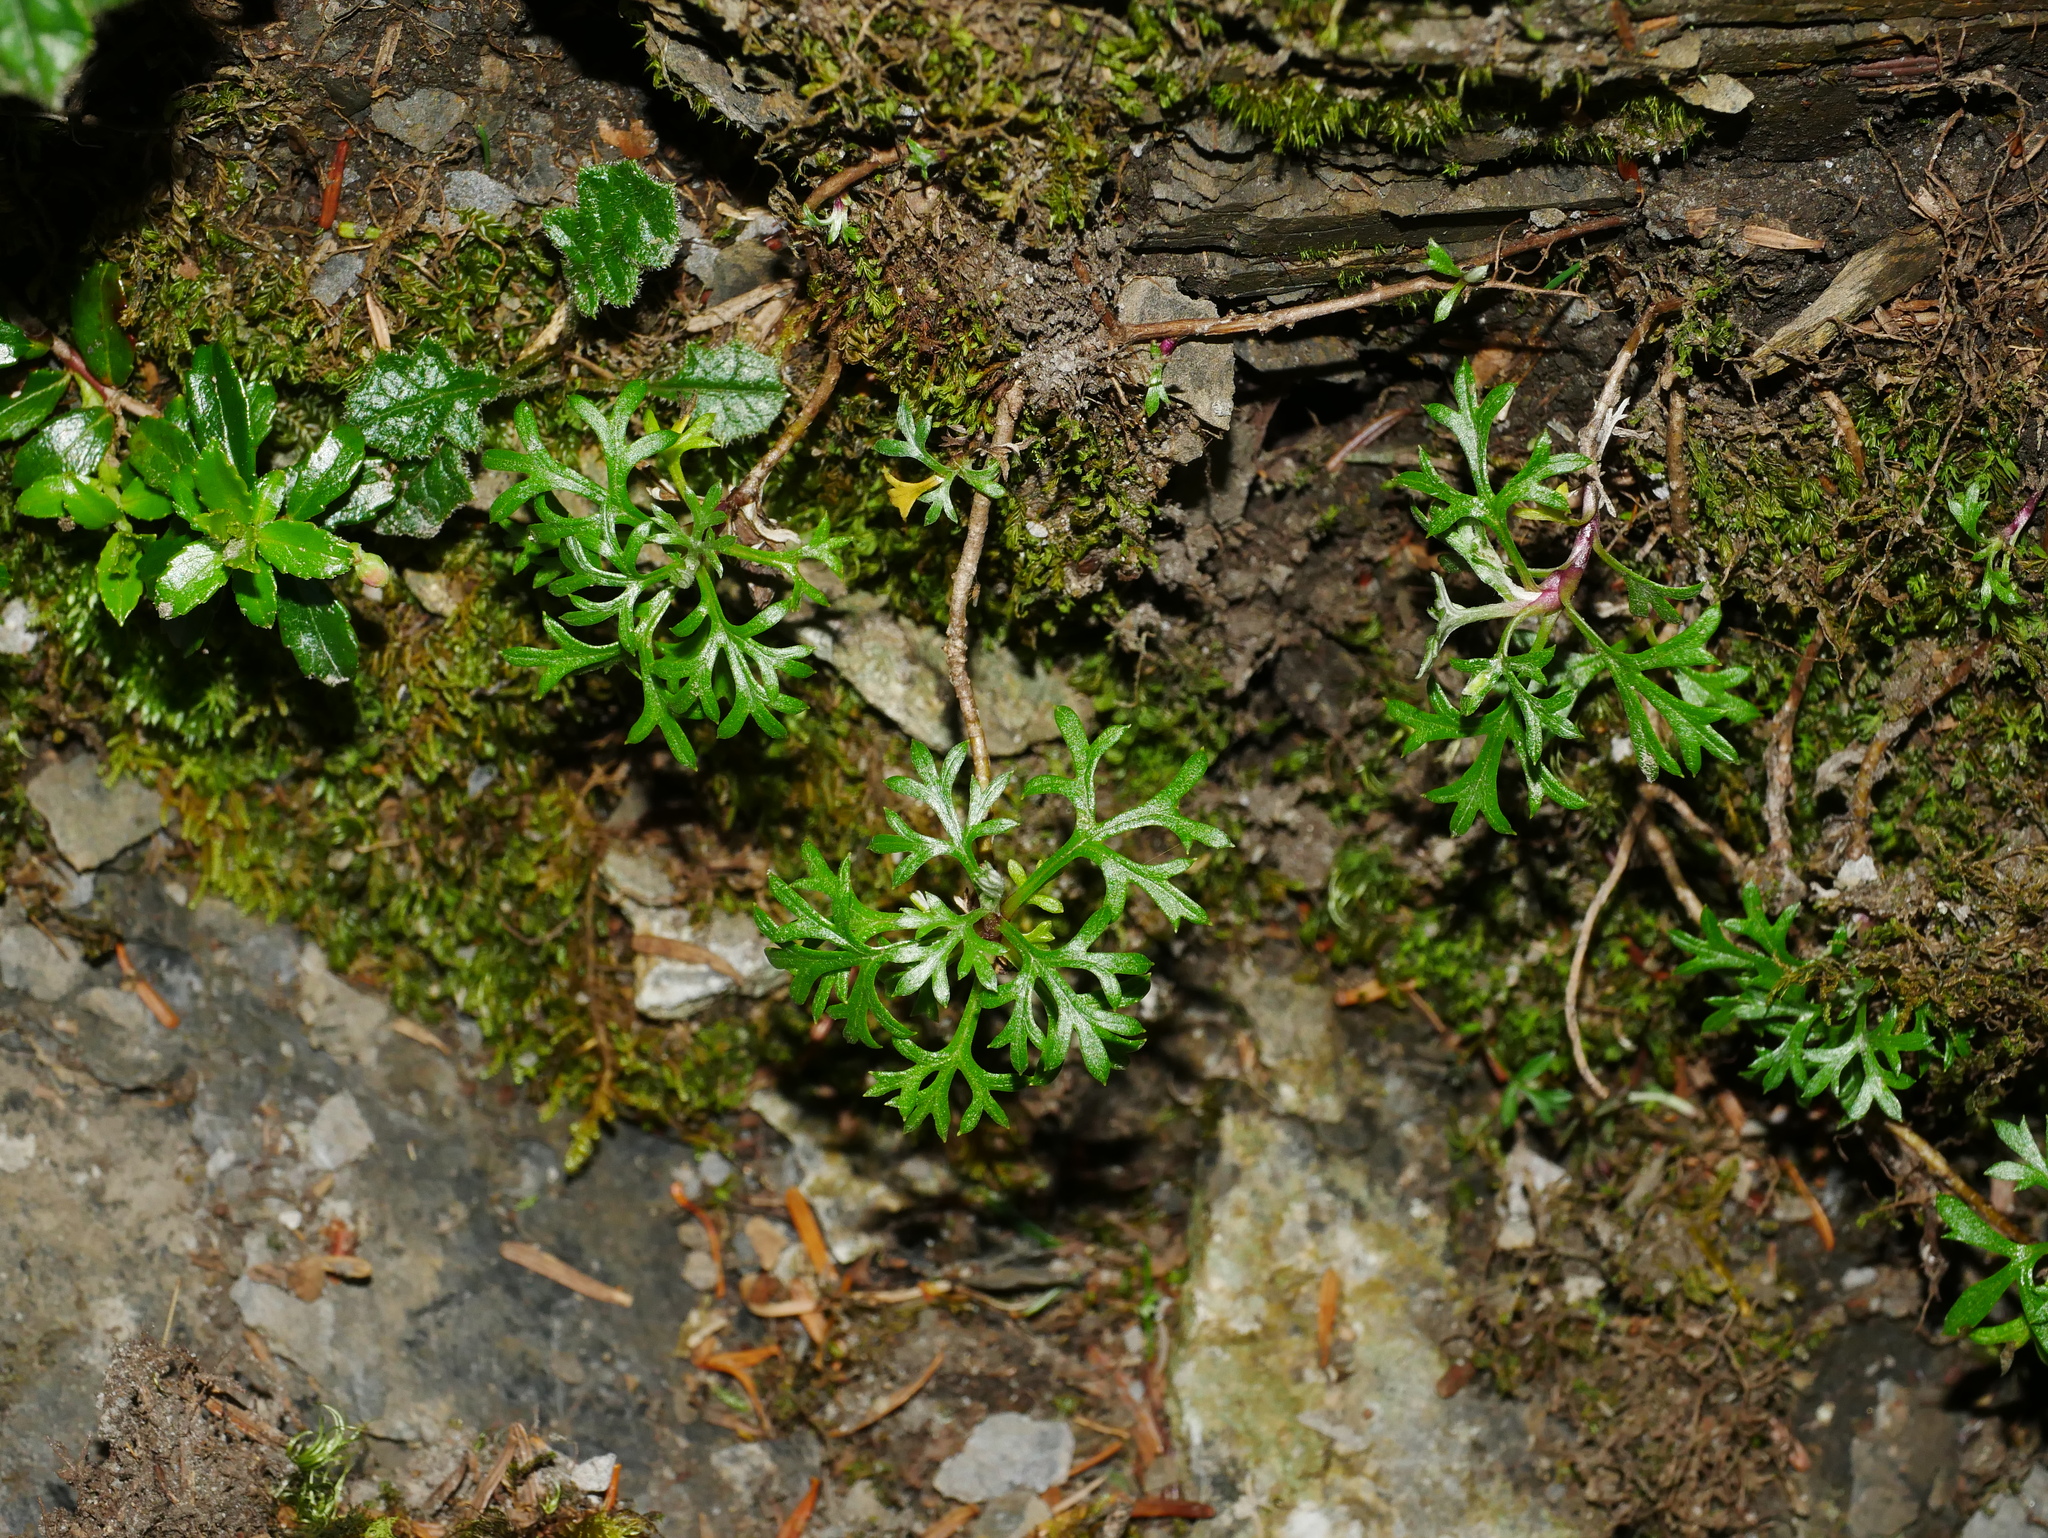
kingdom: Plantae
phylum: Tracheophyta
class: Magnoliopsida
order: Asterales
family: Asteraceae
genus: Artemisia
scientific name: Artemisia oligocarpa
